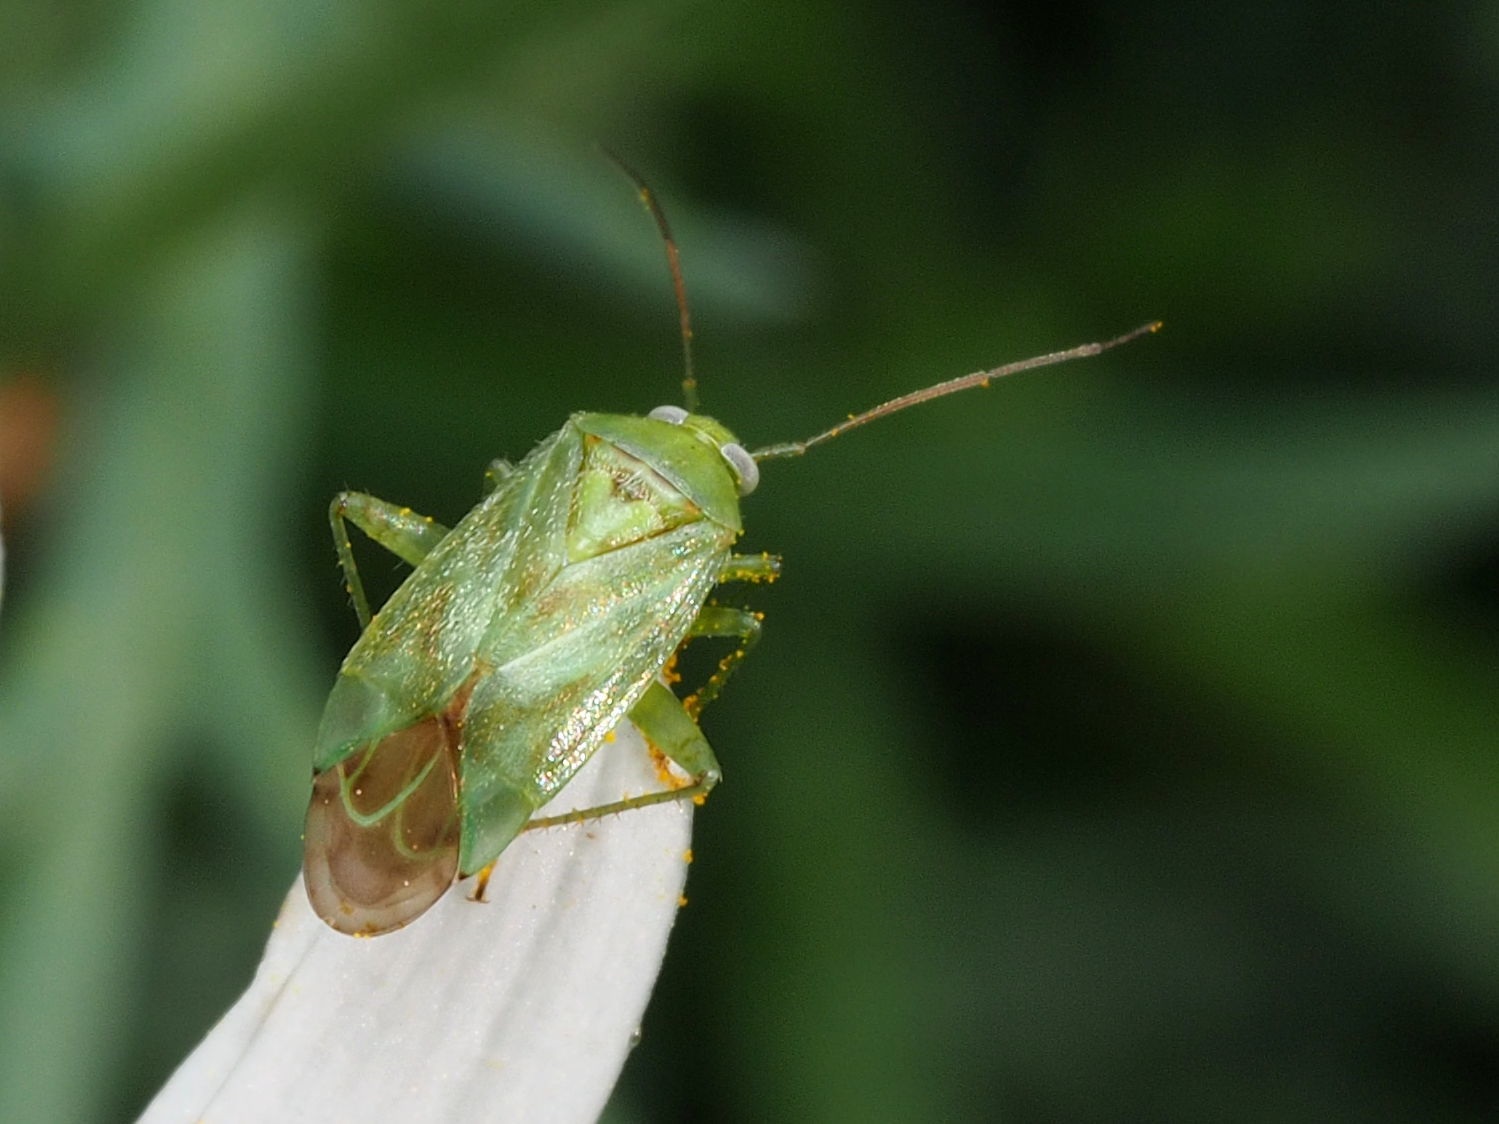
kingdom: Animalia
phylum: Arthropoda
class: Insecta
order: Hemiptera
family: Miridae
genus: Taylorilygus
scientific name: Taylorilygus apicalis
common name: Plant bug
